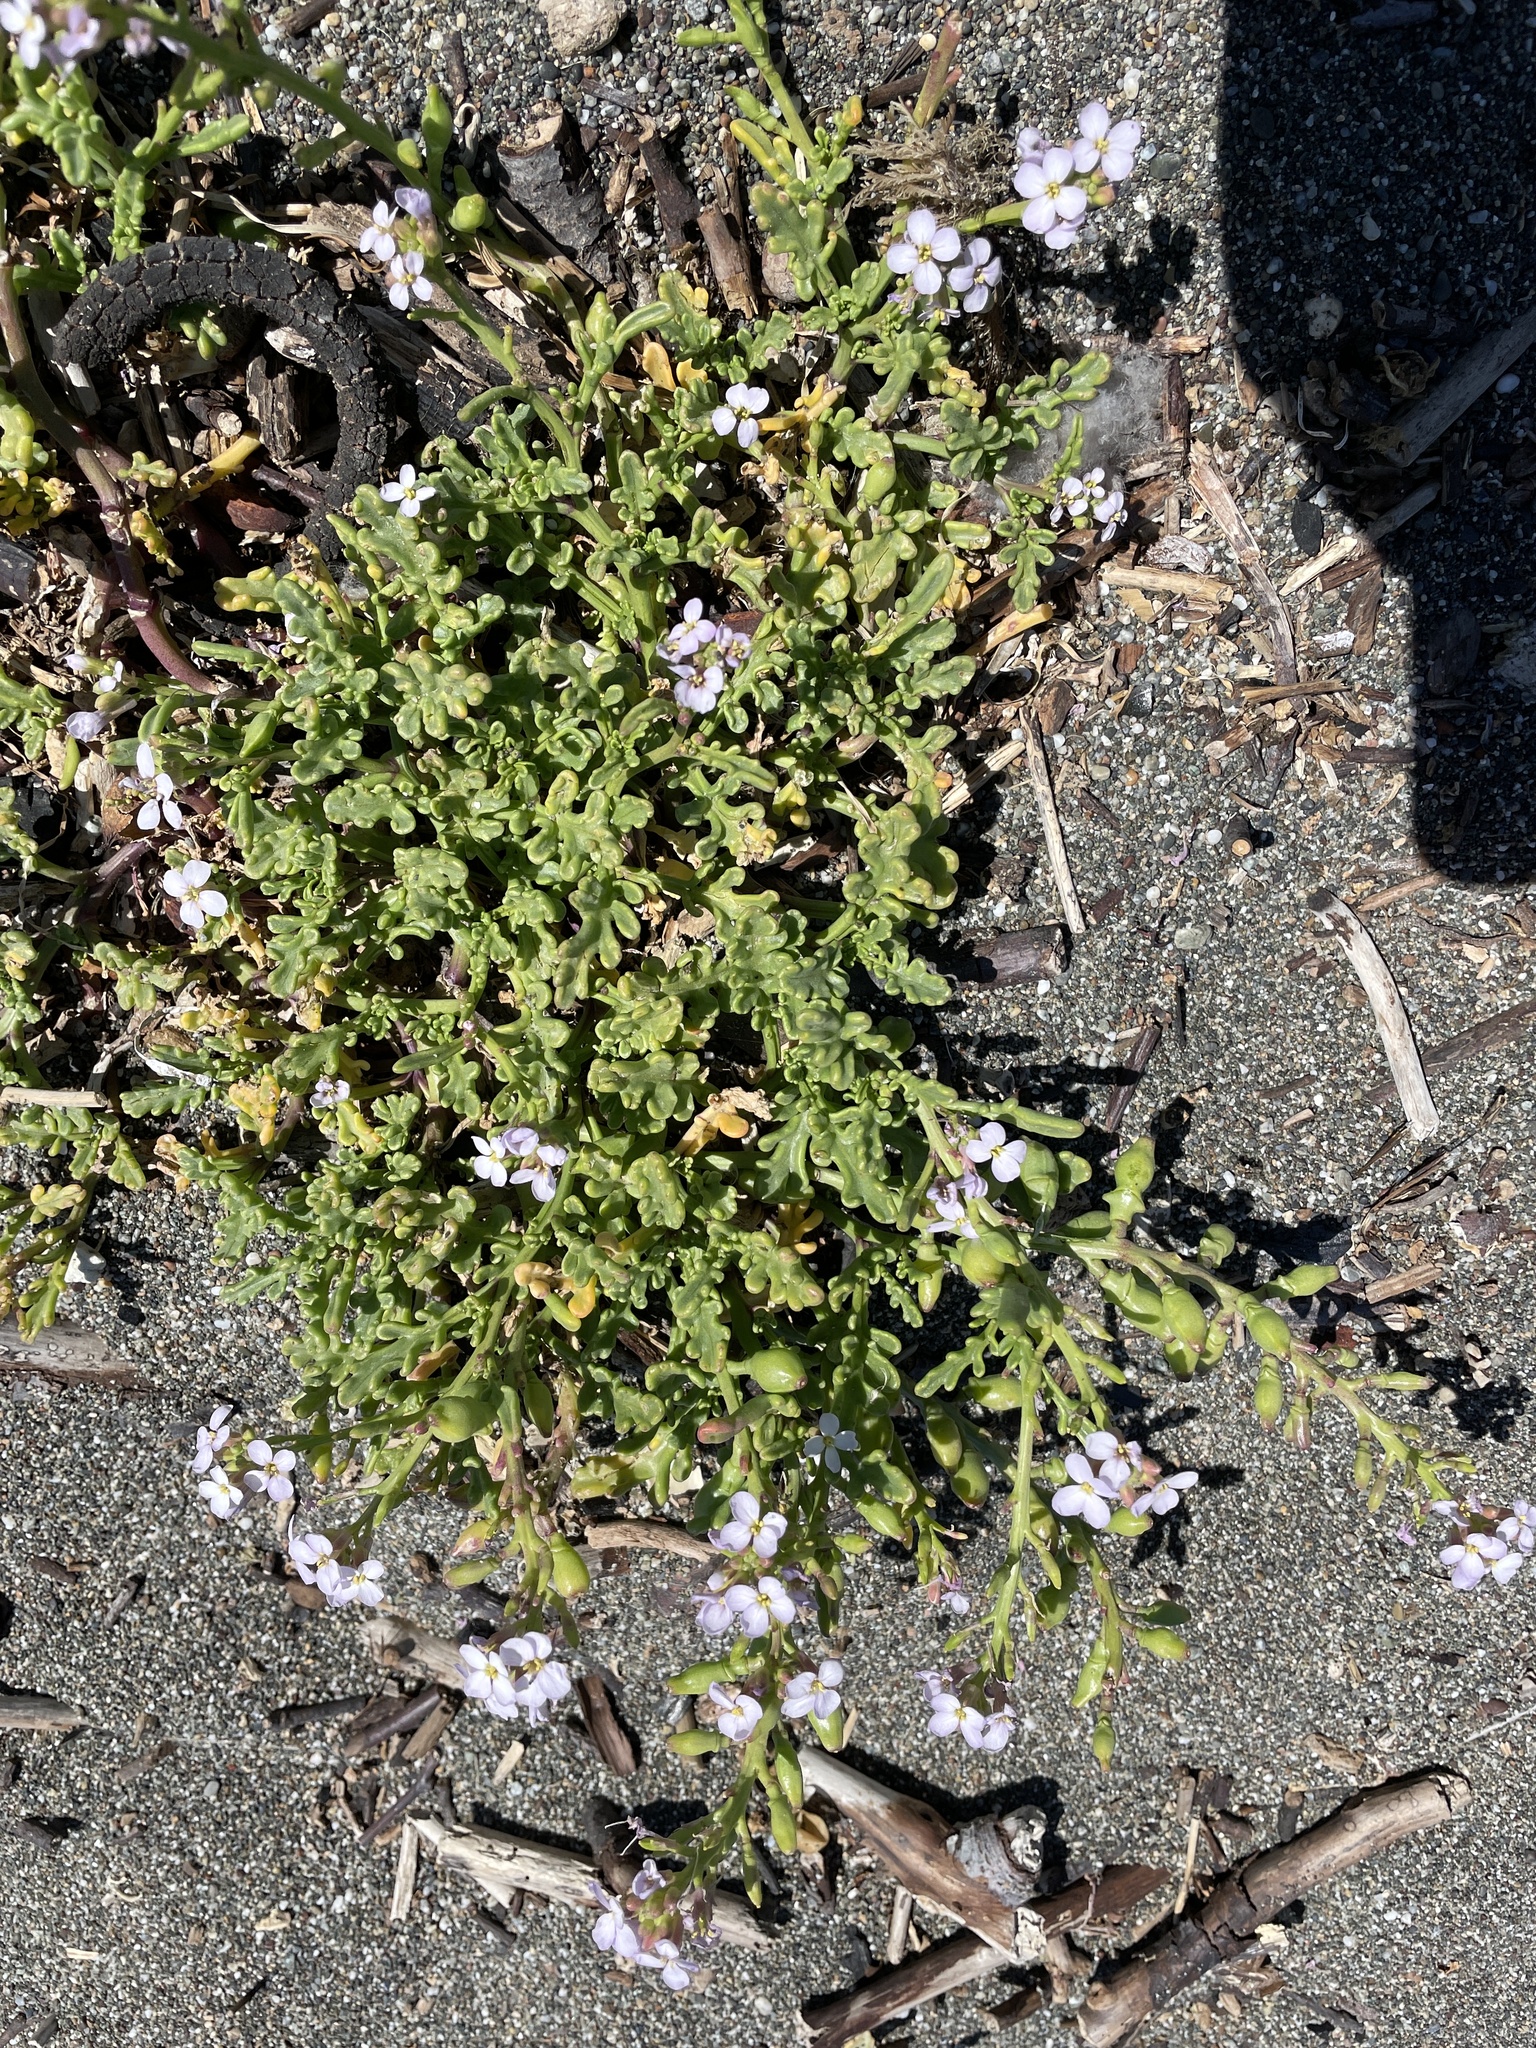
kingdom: Plantae
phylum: Tracheophyta
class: Magnoliopsida
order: Brassicales
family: Brassicaceae
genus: Cakile
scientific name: Cakile maritima
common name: Sea rocket
